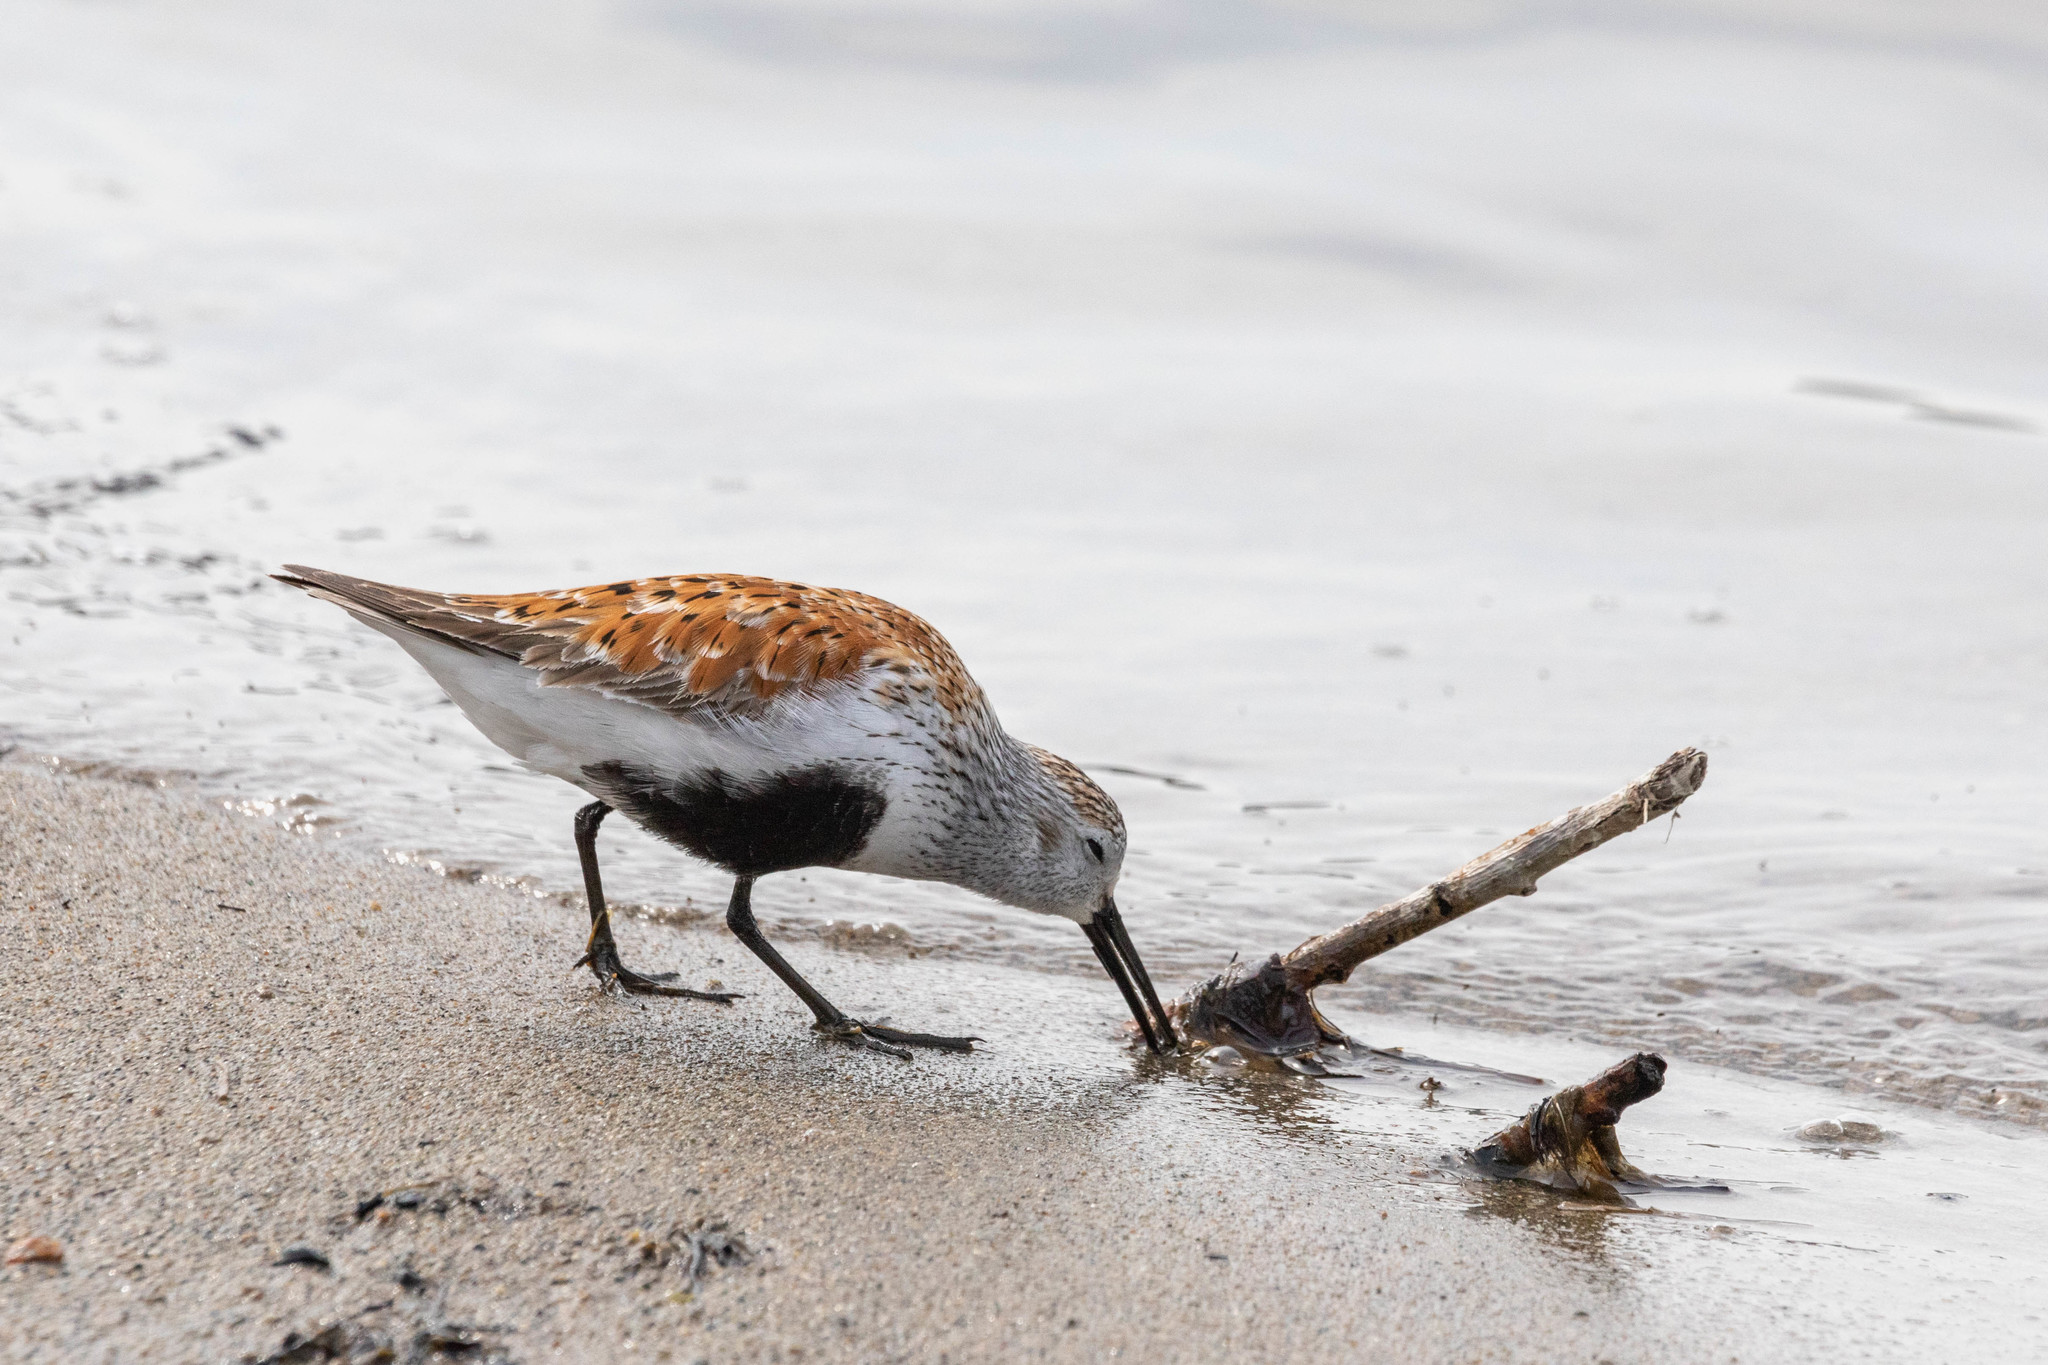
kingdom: Animalia
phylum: Chordata
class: Aves
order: Charadriiformes
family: Scolopacidae
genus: Calidris
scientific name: Calidris alpina
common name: Dunlin
